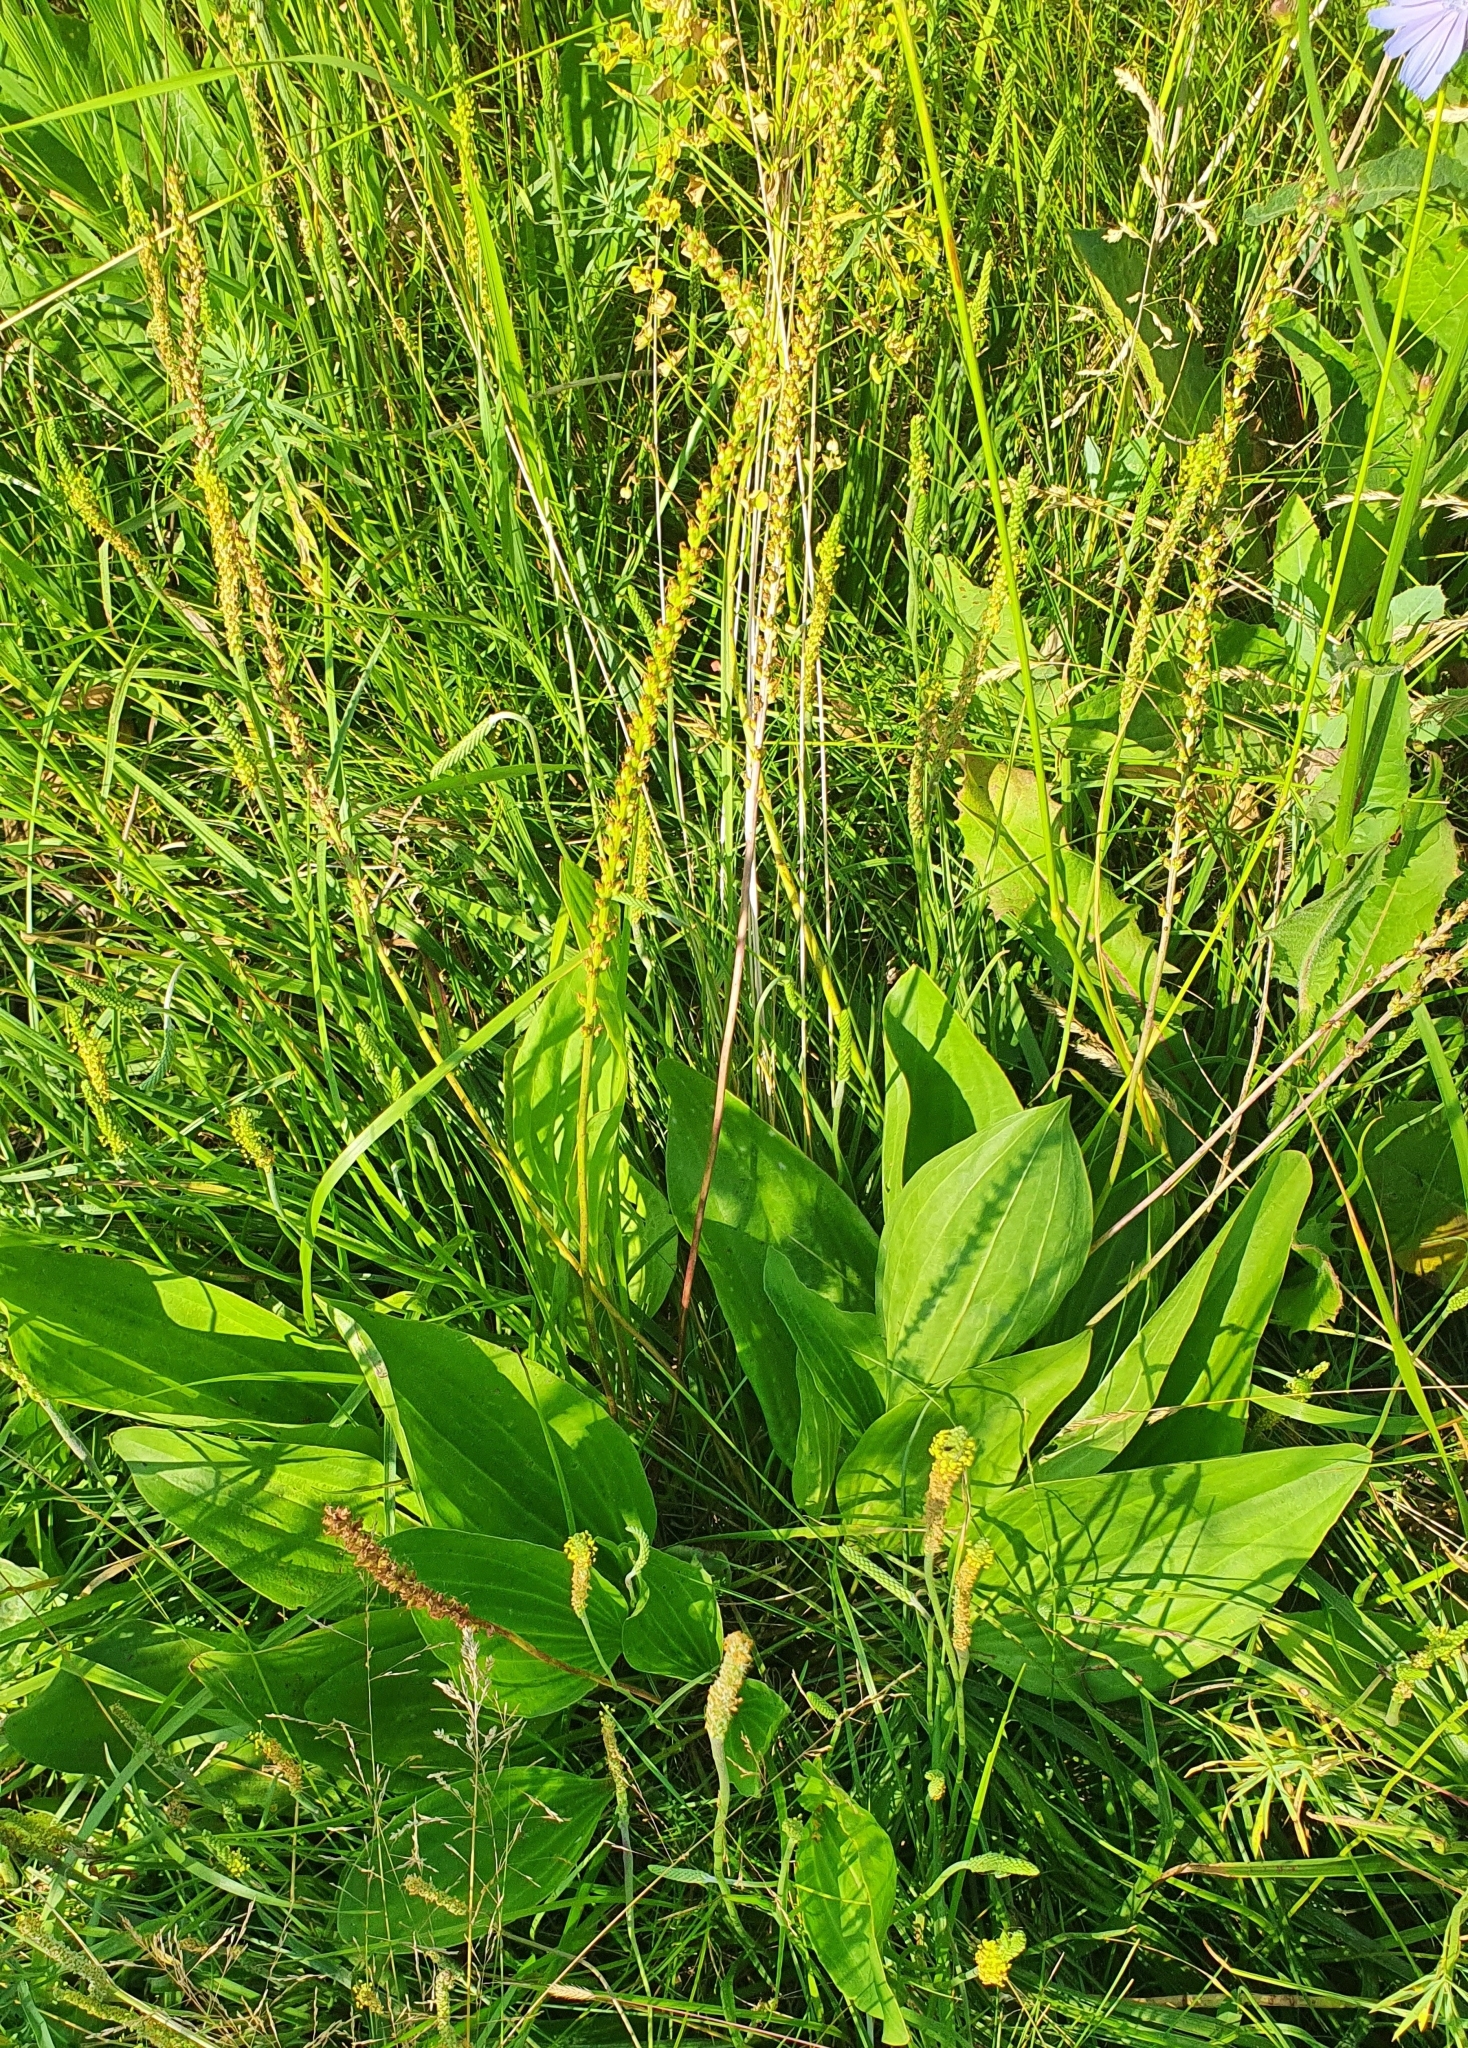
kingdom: Plantae
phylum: Tracheophyta
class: Magnoliopsida
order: Lamiales
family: Plantaginaceae
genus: Plantago
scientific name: Plantago cornuti
